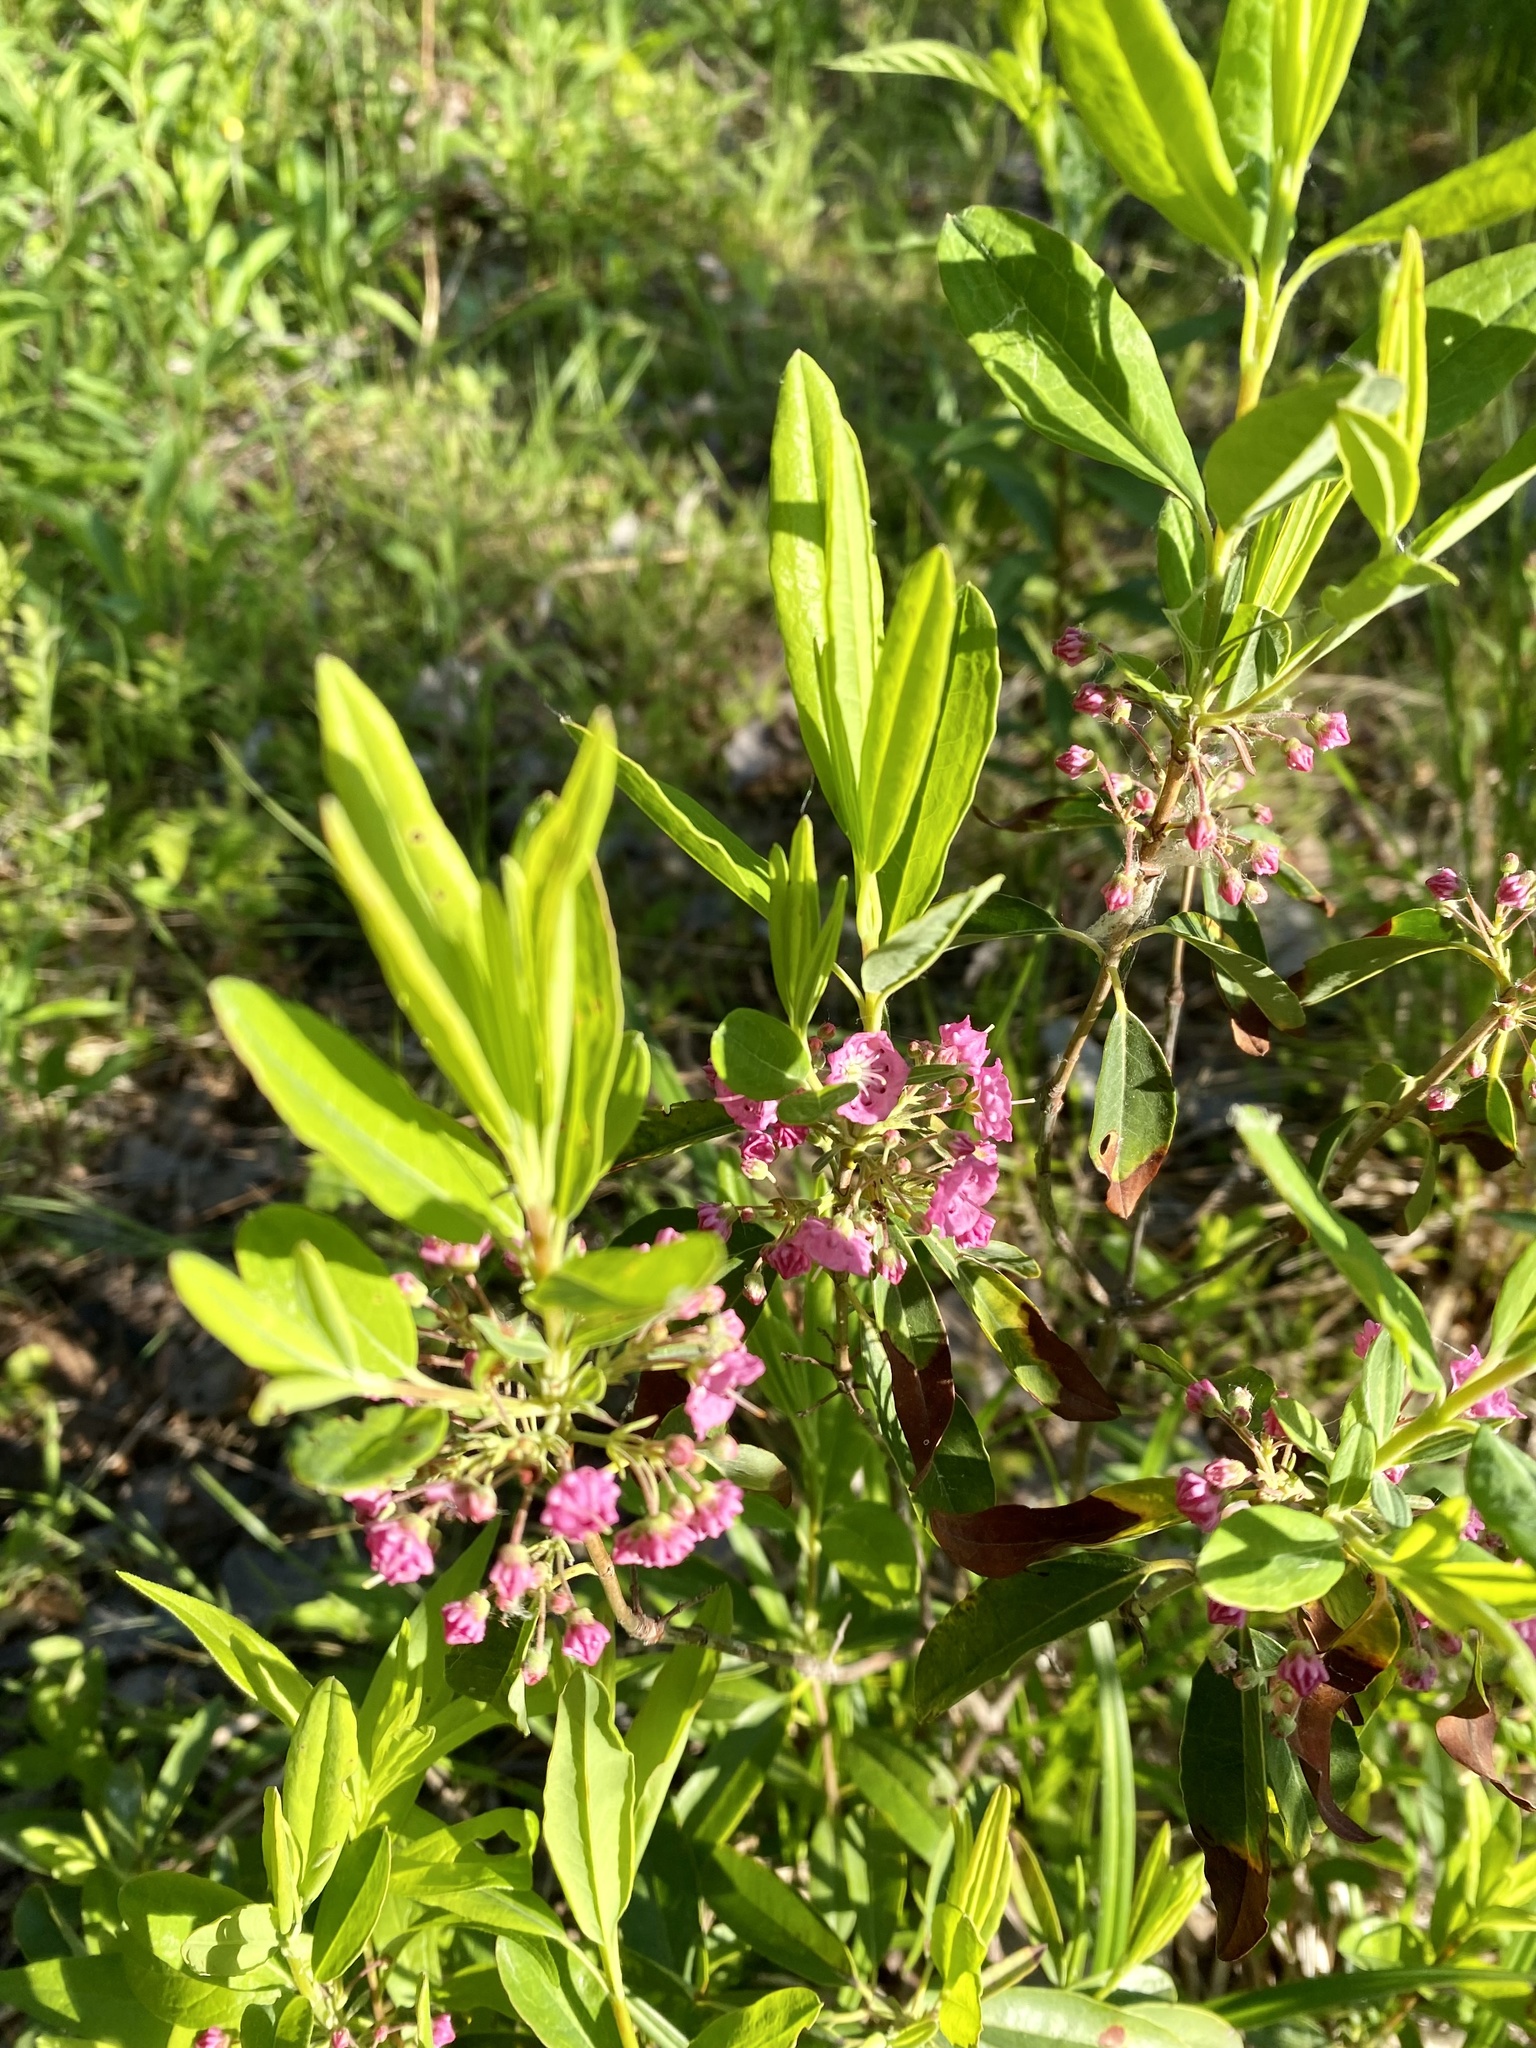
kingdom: Plantae
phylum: Tracheophyta
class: Magnoliopsida
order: Ericales
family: Ericaceae
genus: Kalmia
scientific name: Kalmia angustifolia
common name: Sheep-laurel
